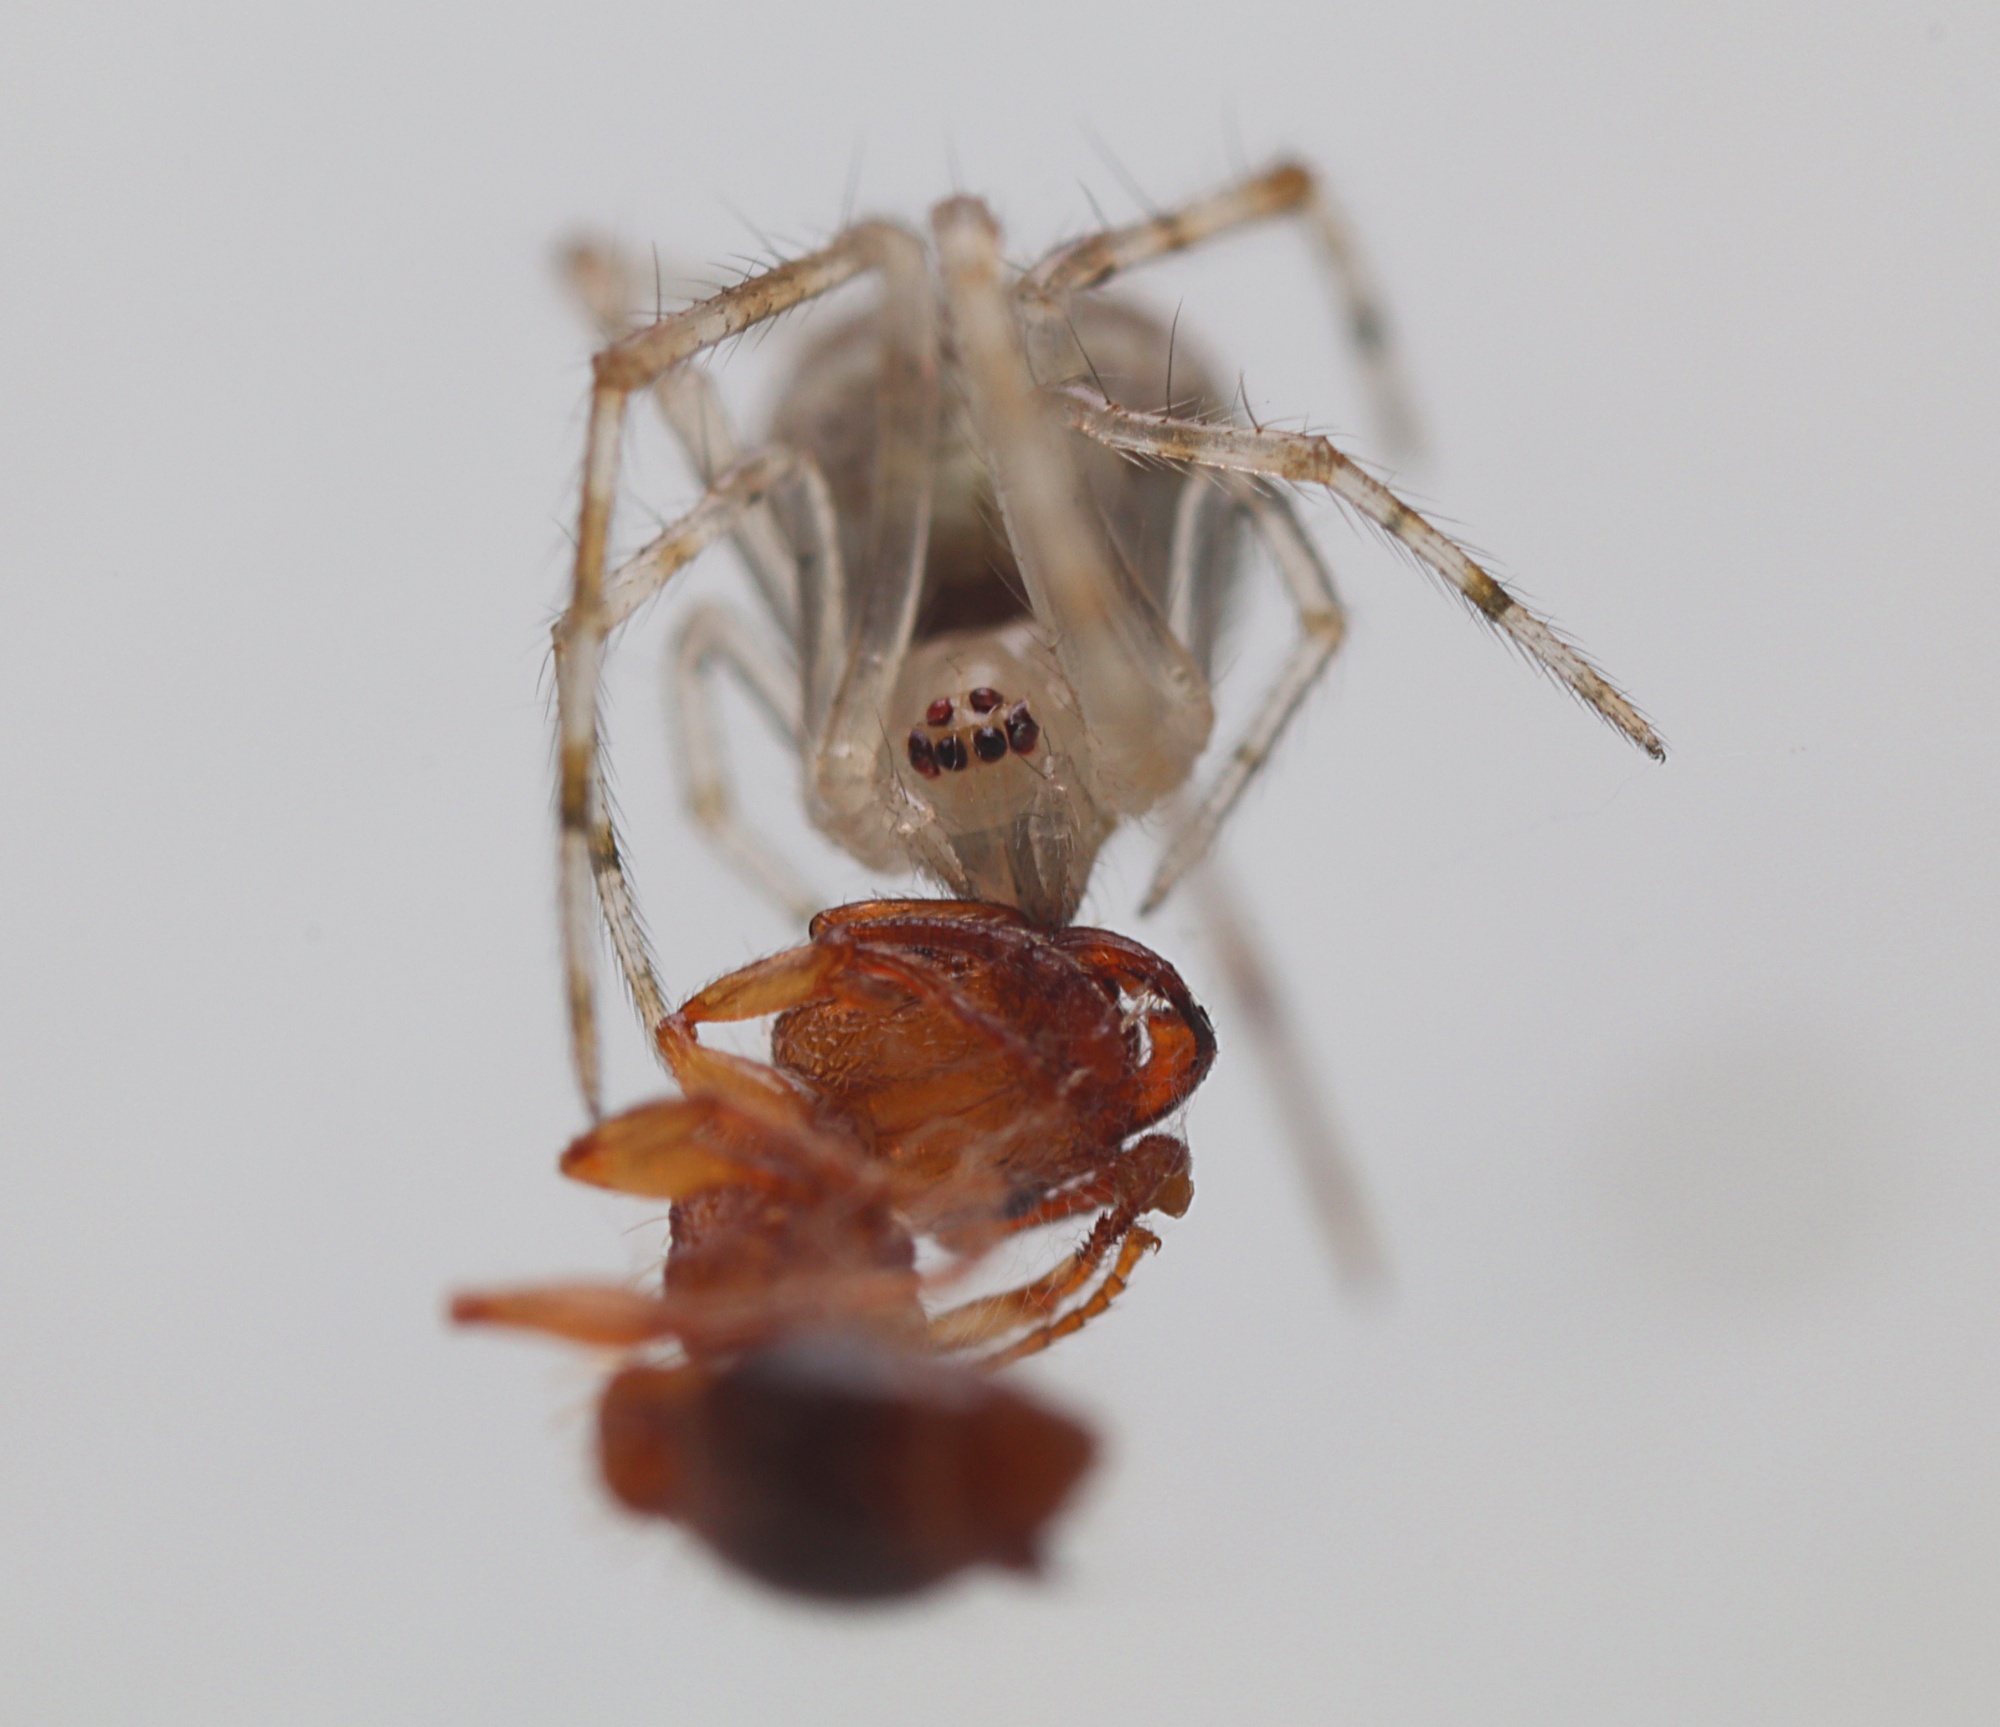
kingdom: Animalia
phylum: Arthropoda
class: Arachnida
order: Araneae
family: Theridiidae
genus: Cryptachaea
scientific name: Cryptachaea gigantipes
